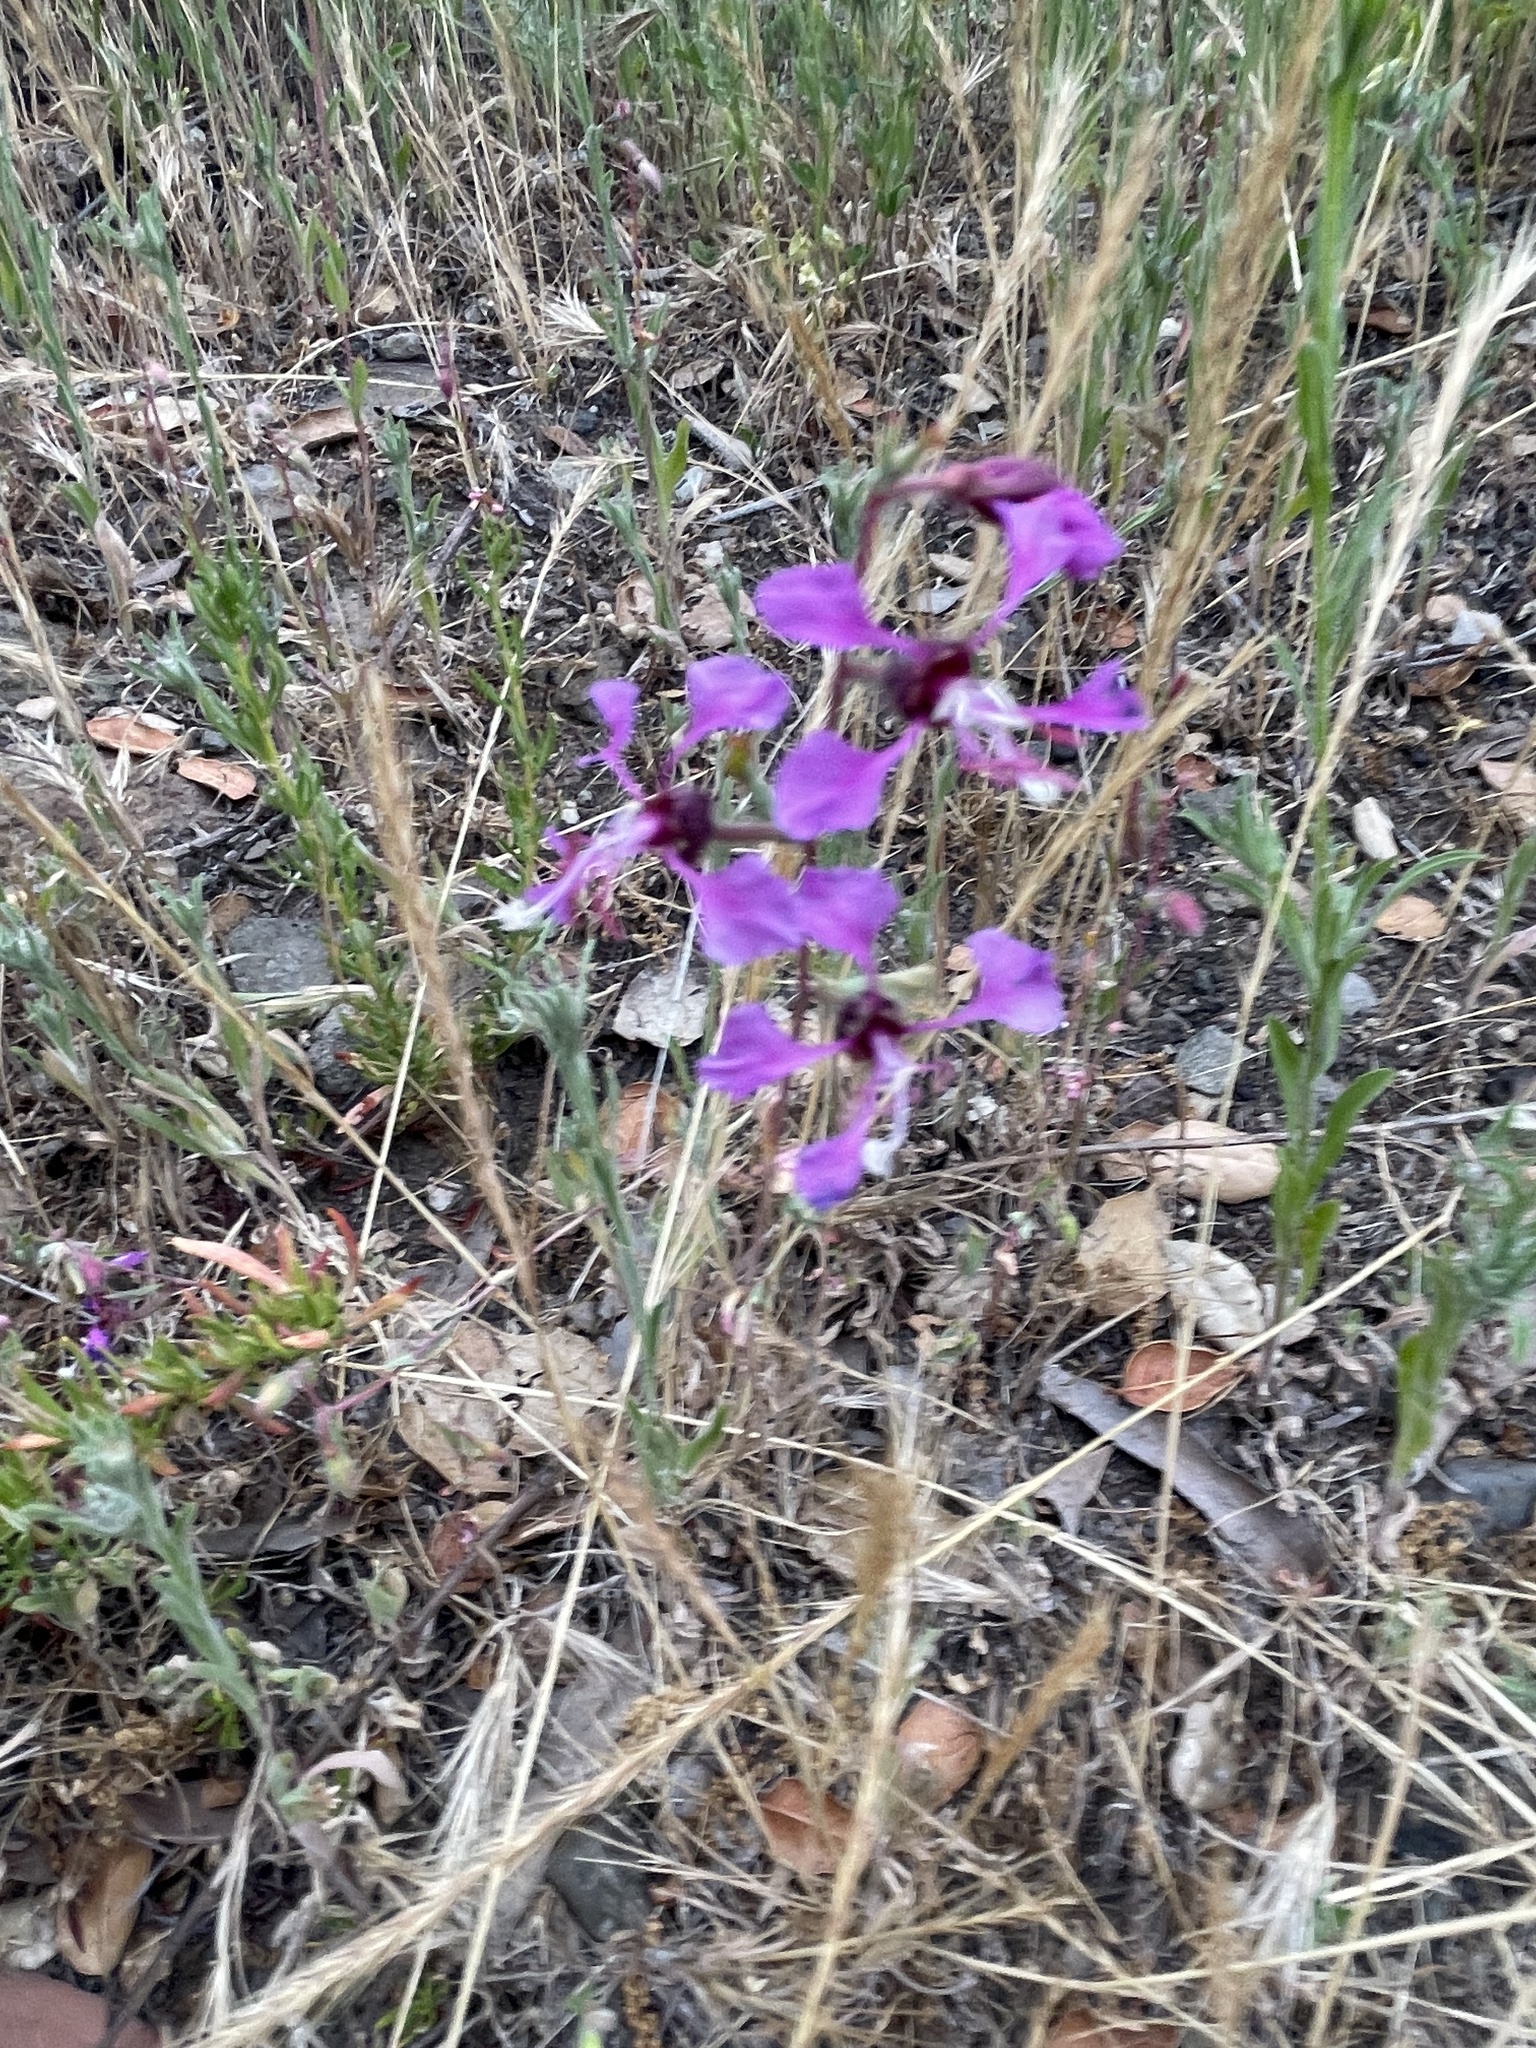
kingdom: Plantae
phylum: Tracheophyta
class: Magnoliopsida
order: Myrtales
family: Onagraceae
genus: Clarkia
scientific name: Clarkia unguiculata
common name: Clarkia
